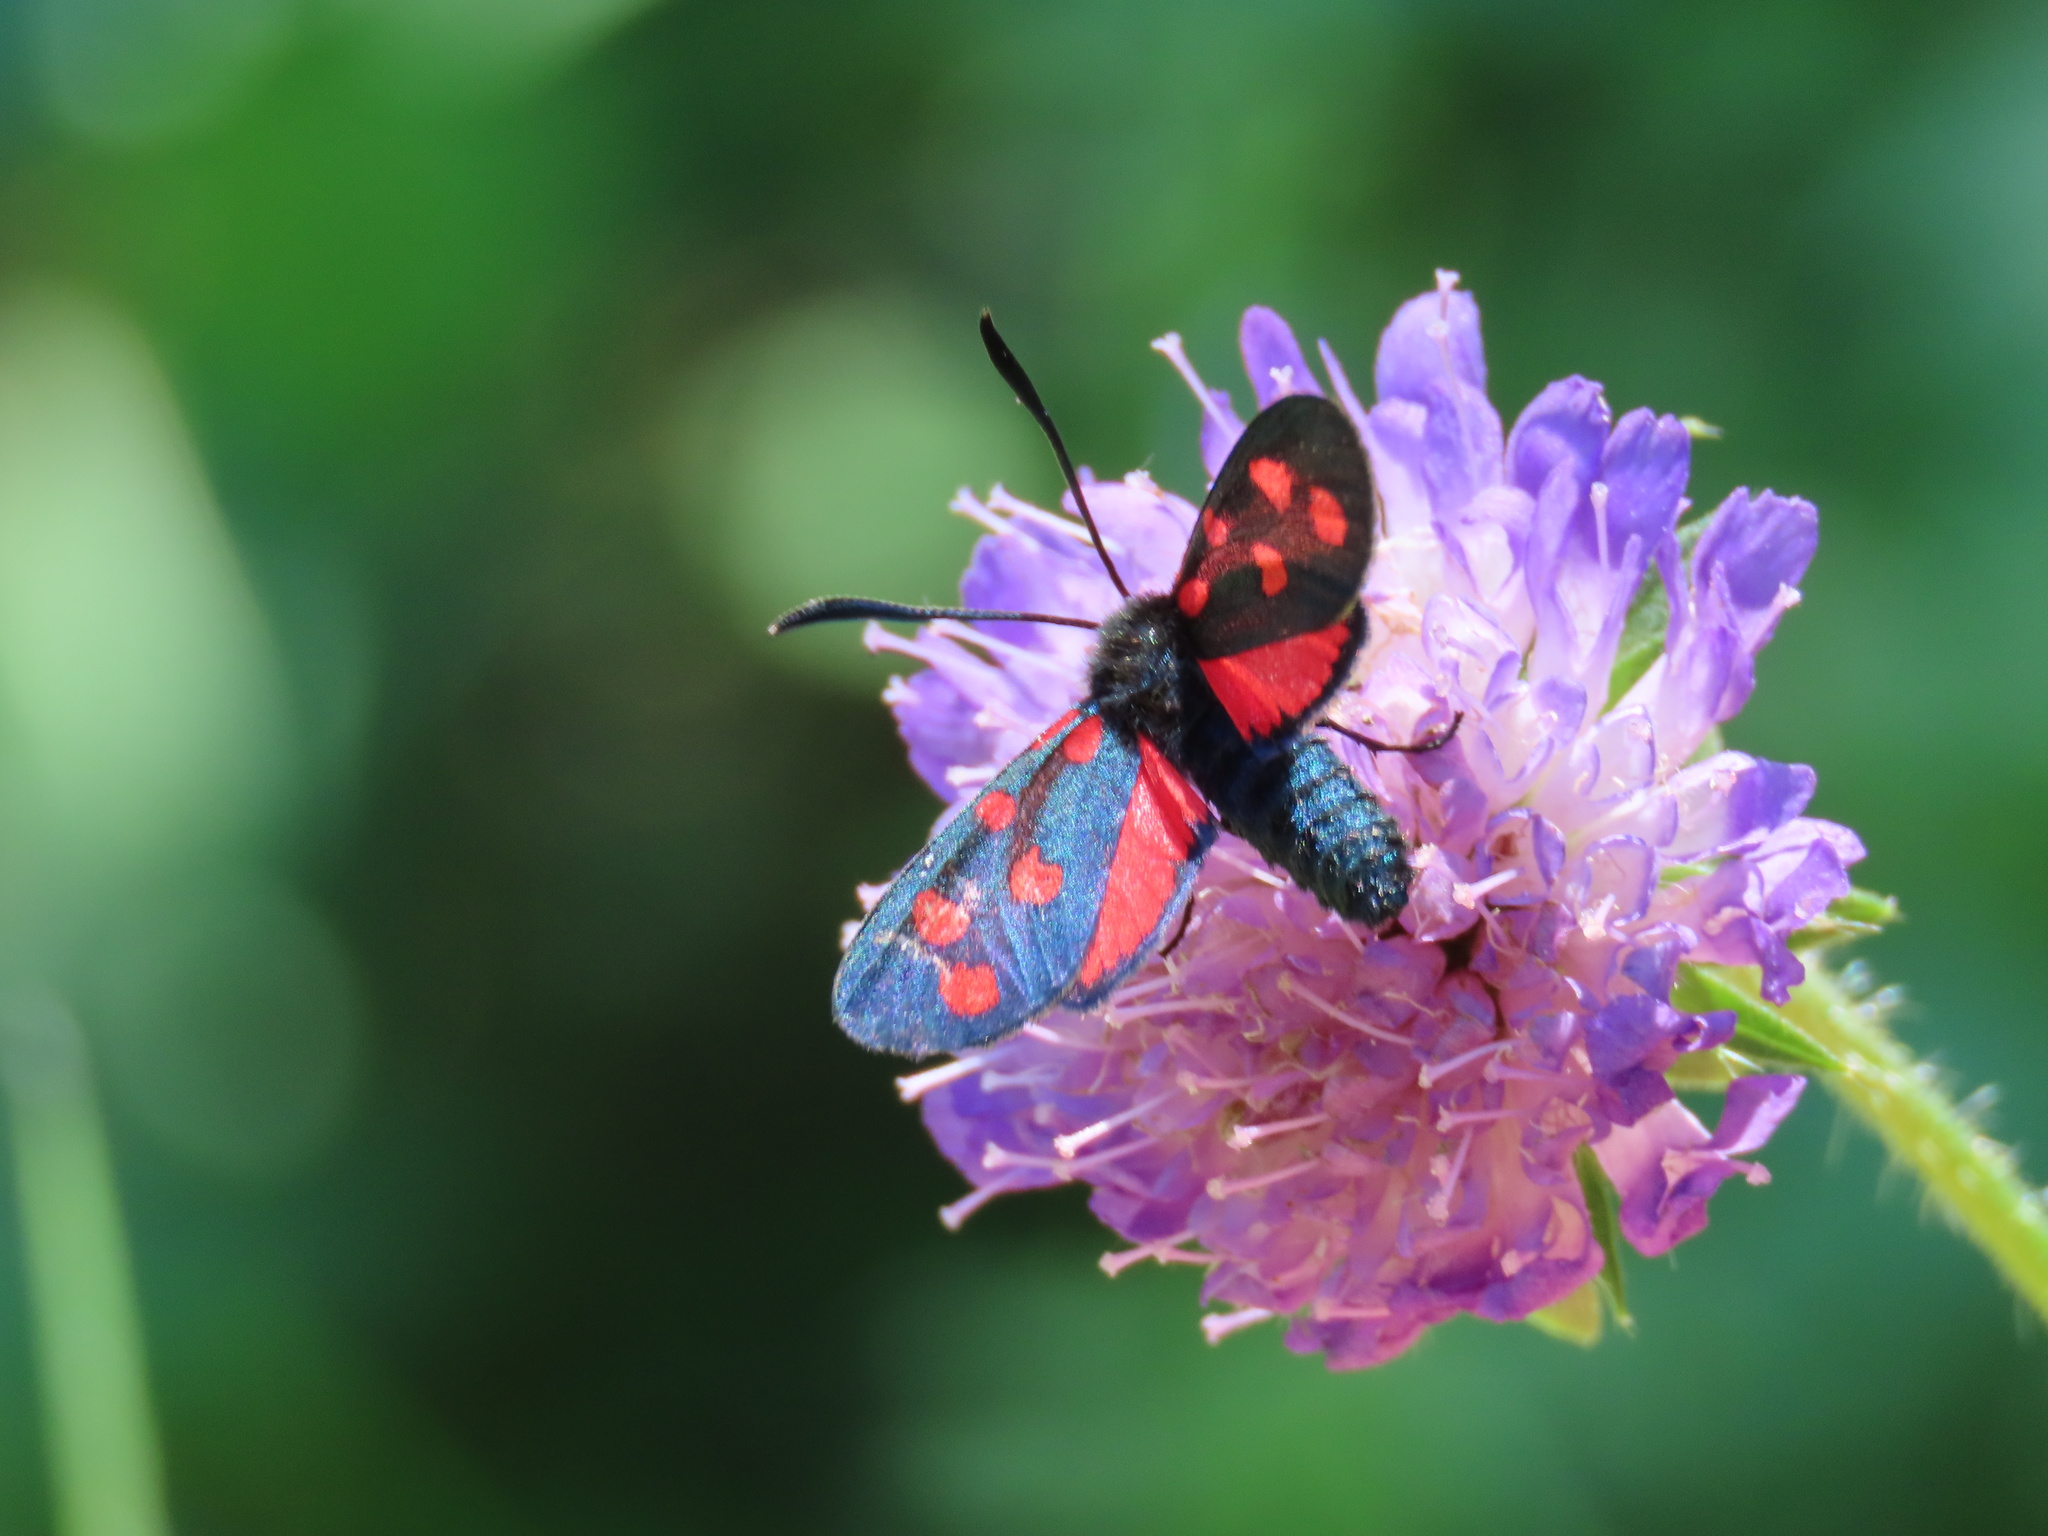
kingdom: Animalia
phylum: Arthropoda
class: Insecta
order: Lepidoptera
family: Zygaenidae
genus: Zygaena
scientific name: Zygaena transalpina
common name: Southern six spot burnet
